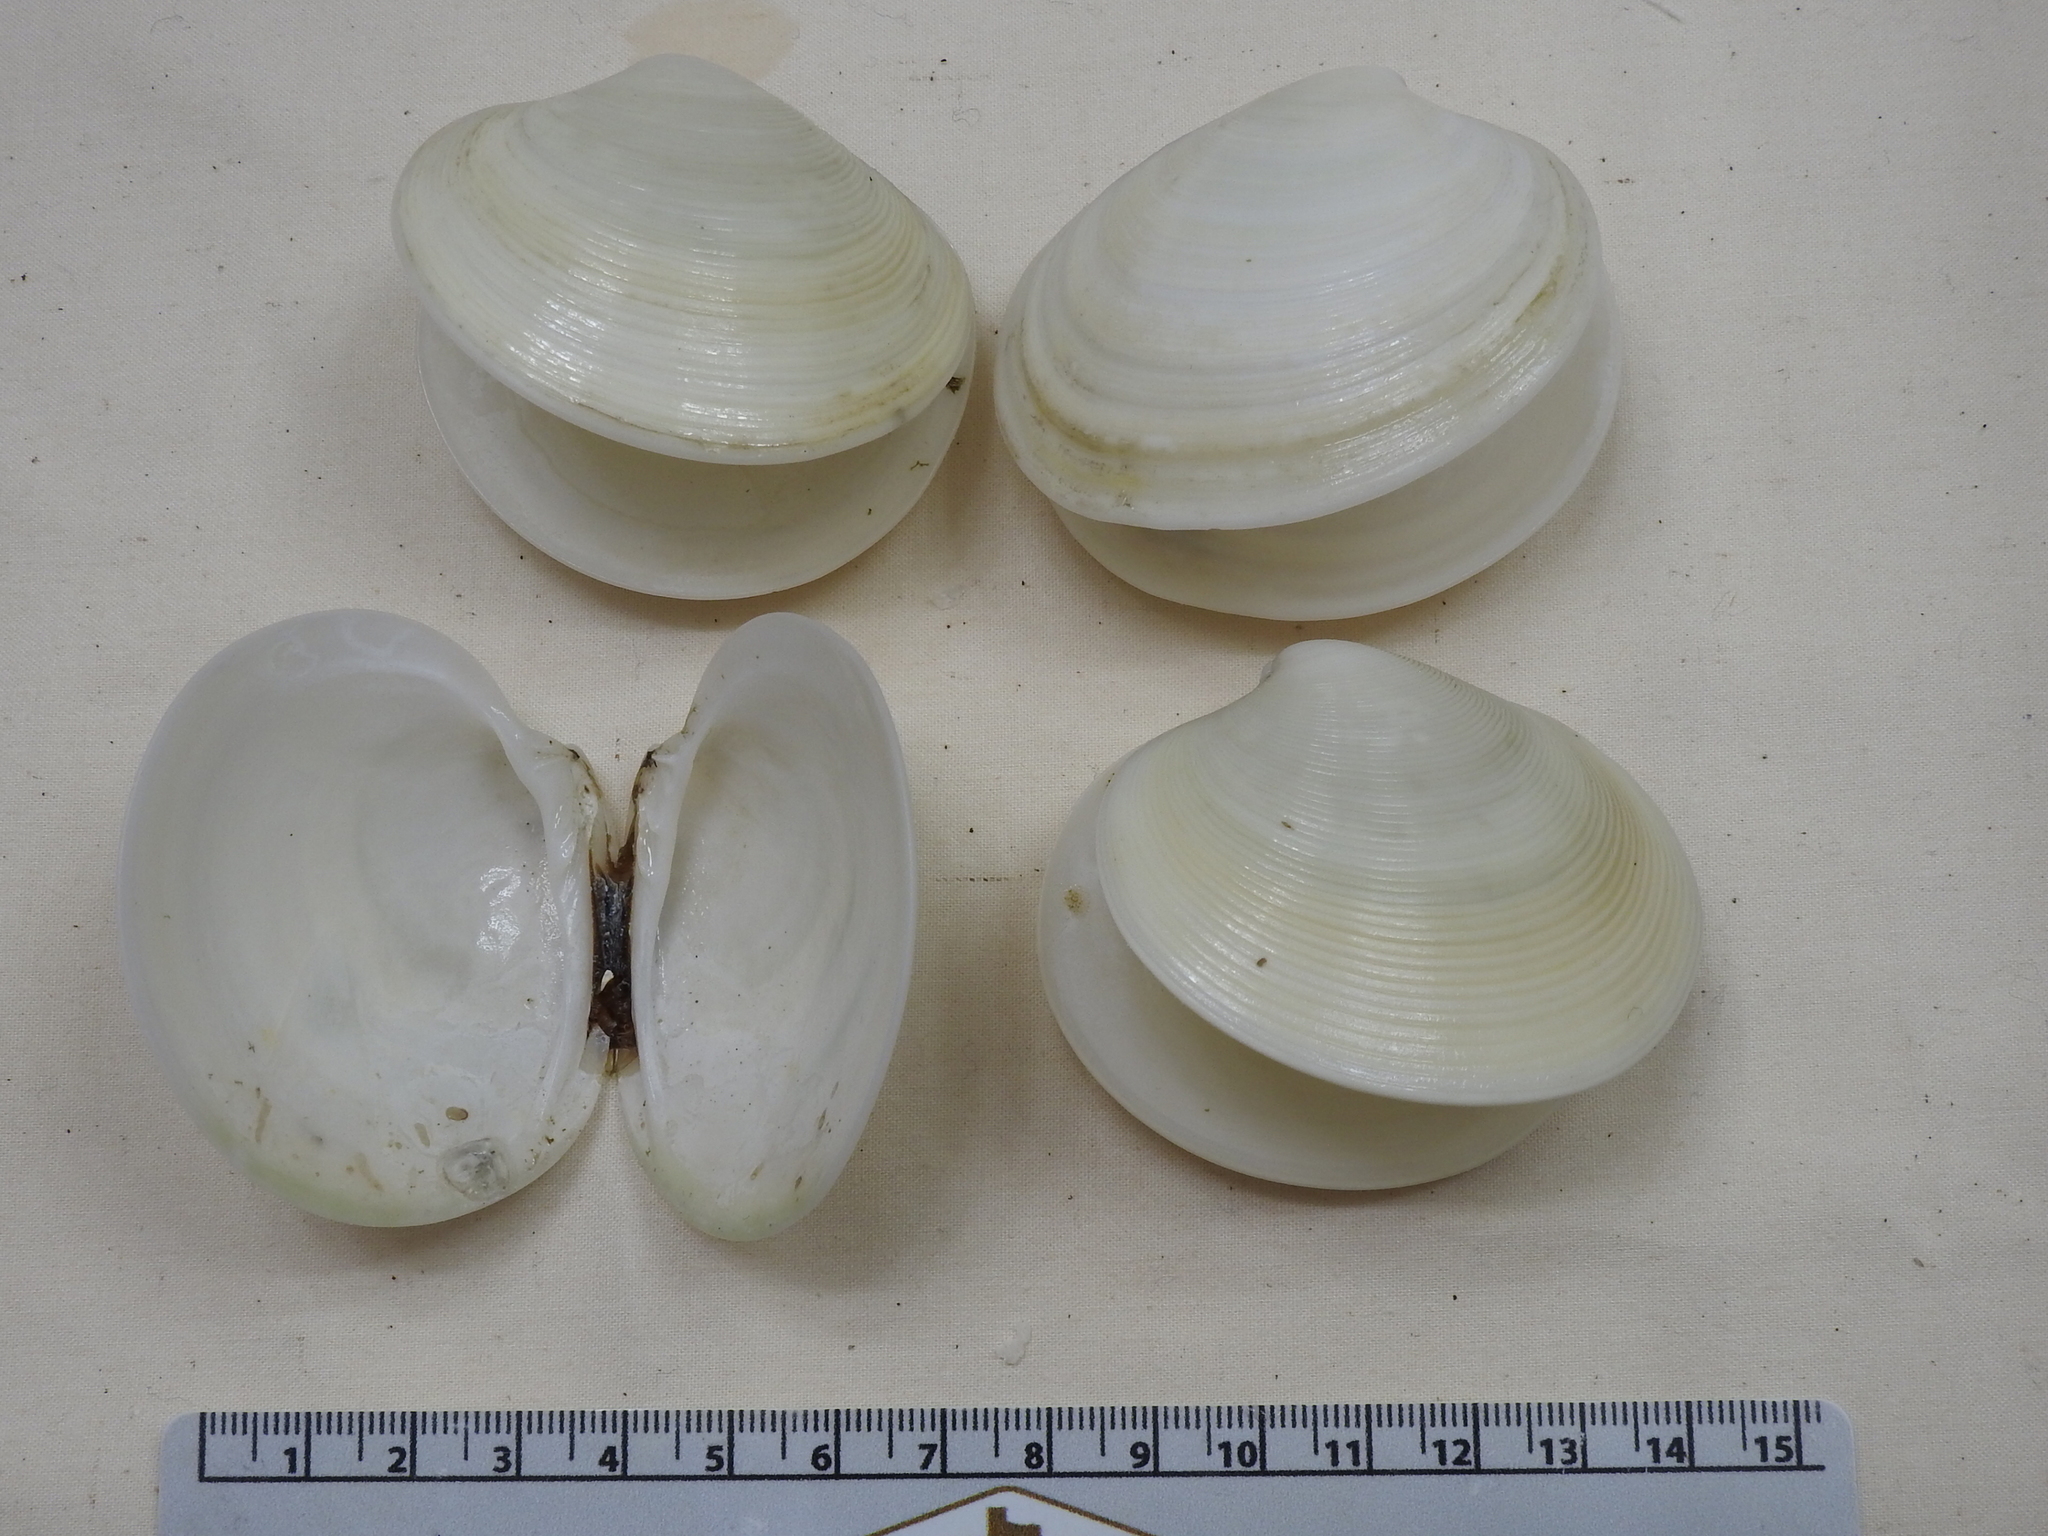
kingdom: Animalia
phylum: Mollusca
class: Bivalvia
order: Venerida
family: Veneridae
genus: Dosinia
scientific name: Dosinia discus
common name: Disk dosinia
